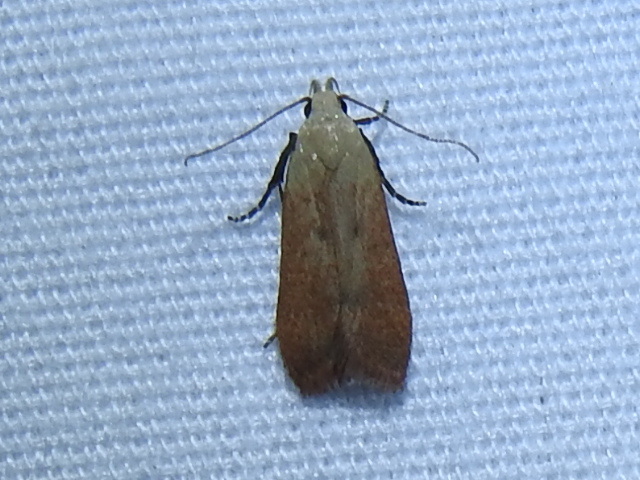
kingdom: Animalia
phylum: Arthropoda
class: Insecta
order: Lepidoptera
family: Gelechiidae
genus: Anacampsis
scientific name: Anacampsis fullonella
